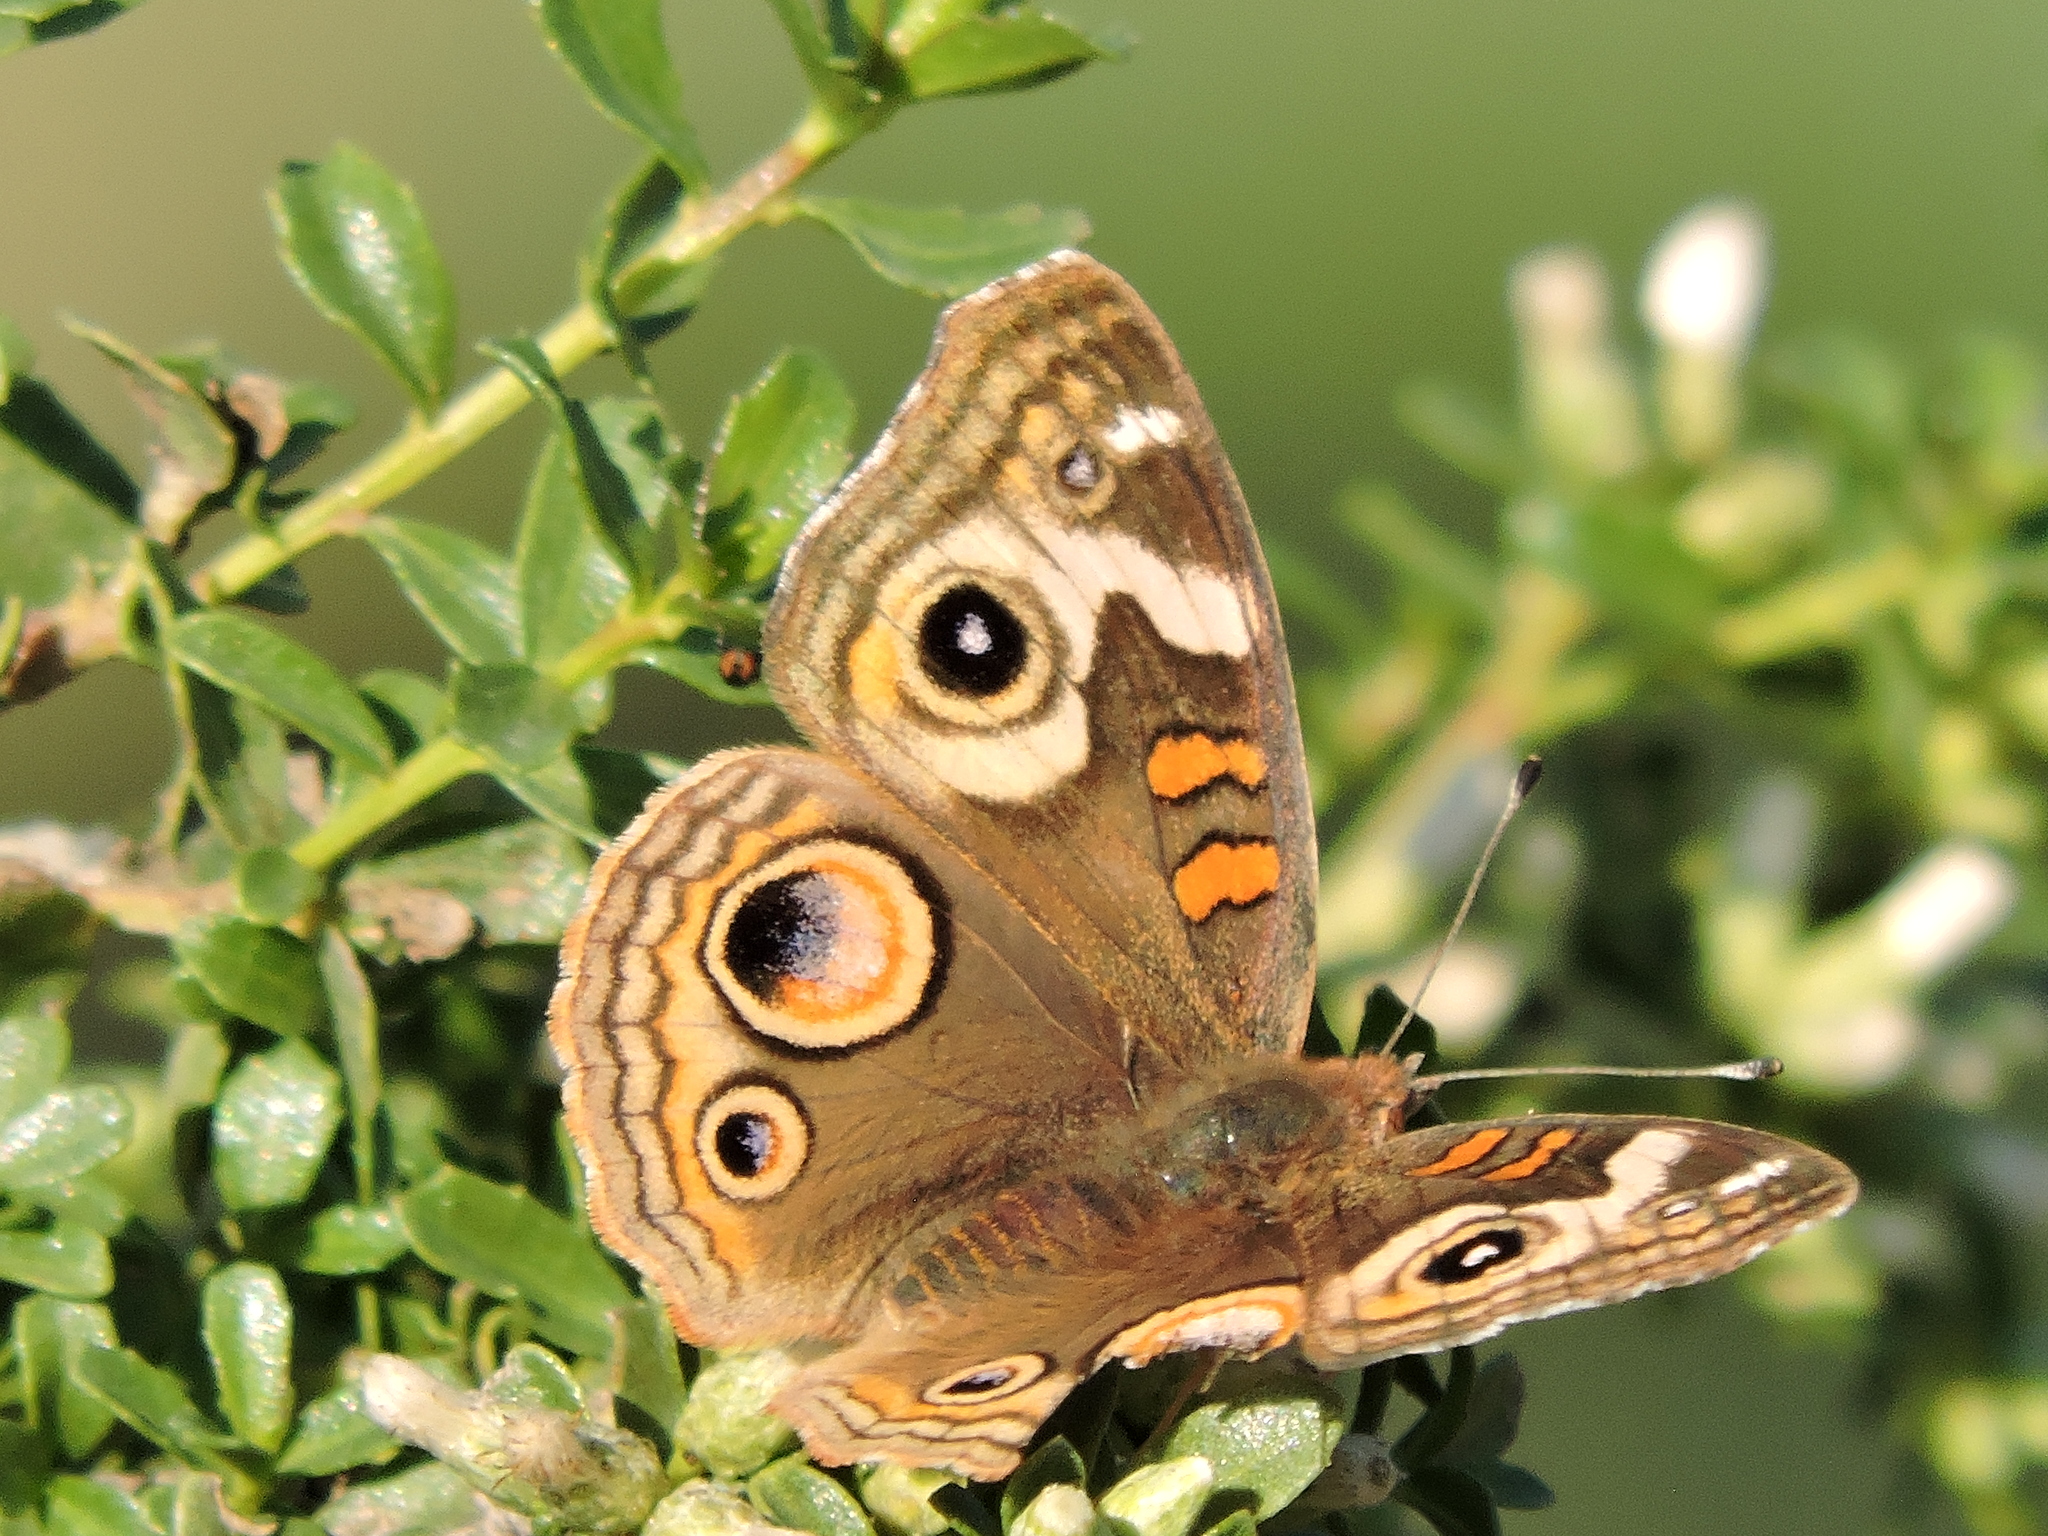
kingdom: Animalia
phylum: Arthropoda
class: Insecta
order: Lepidoptera
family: Nymphalidae
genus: Junonia
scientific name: Junonia grisea
